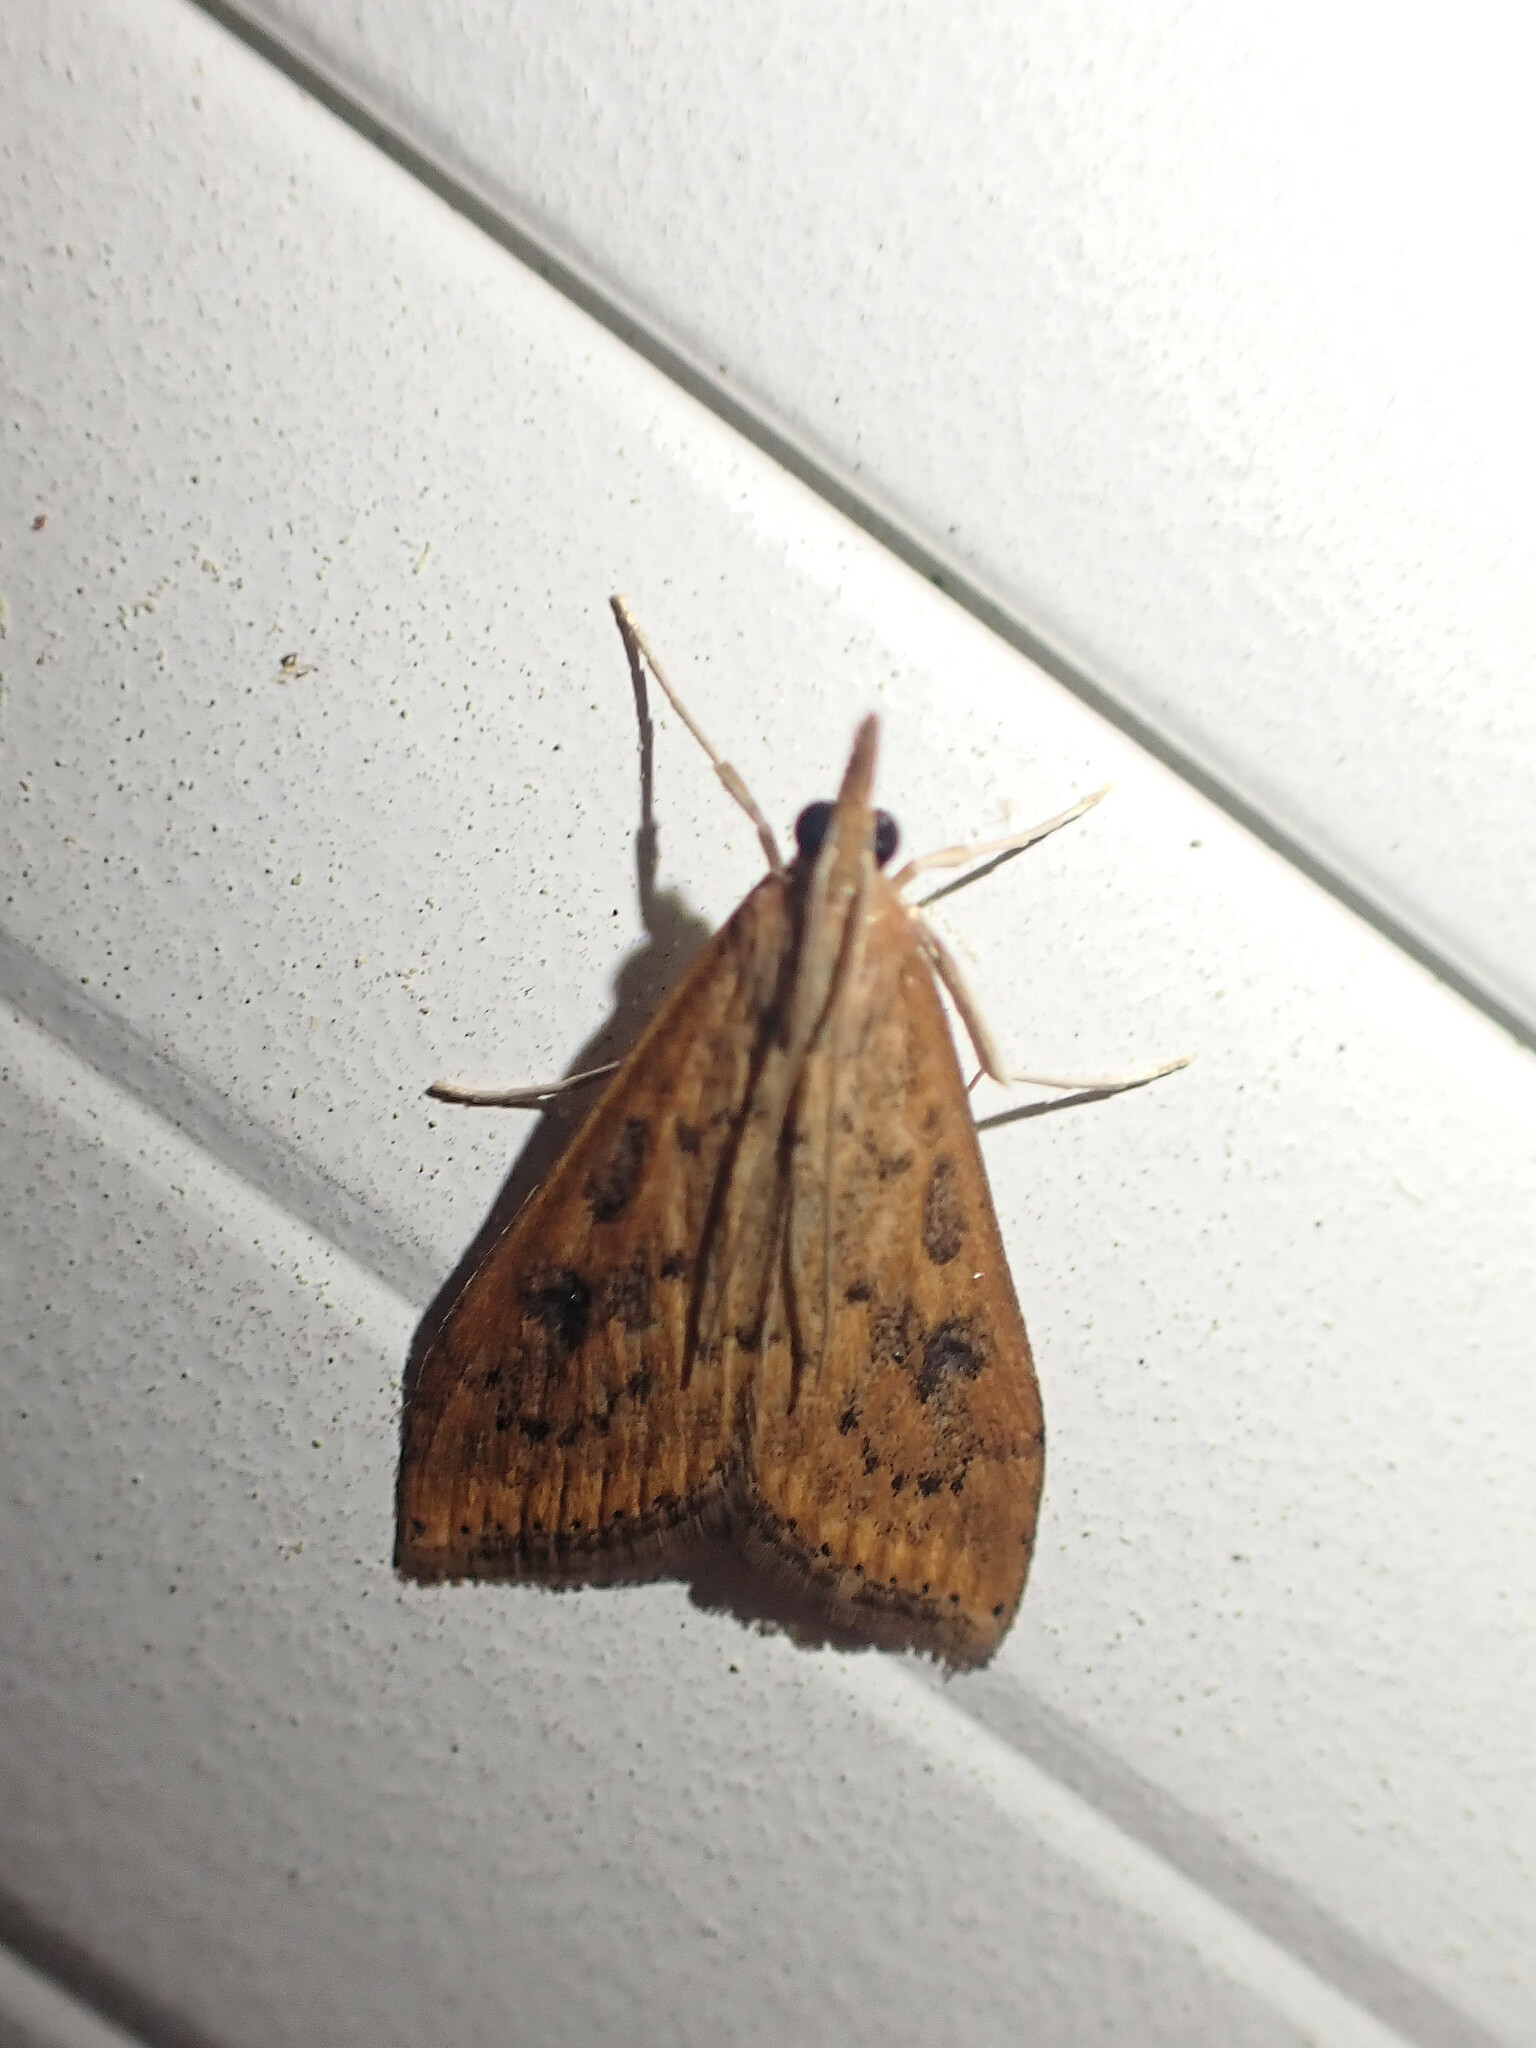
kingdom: Animalia
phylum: Arthropoda
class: Insecta
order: Lepidoptera
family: Crambidae
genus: Udea
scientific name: Udea ferrugalis
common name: Rusty dot
